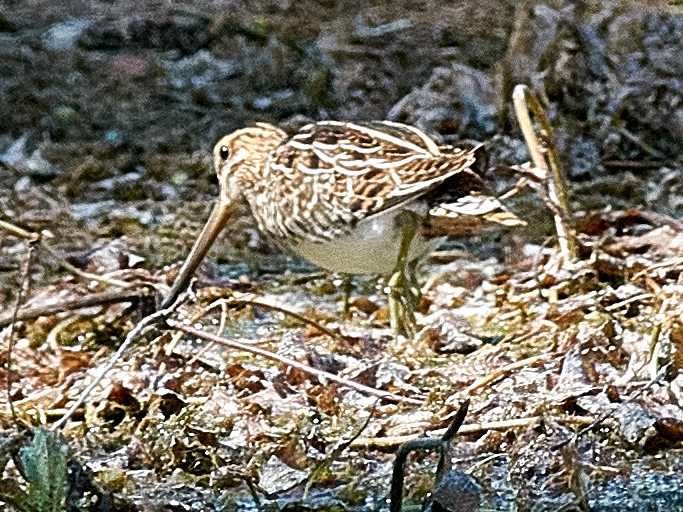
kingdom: Animalia
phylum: Chordata
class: Aves
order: Charadriiformes
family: Scolopacidae
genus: Gallinago
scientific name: Gallinago gallinago
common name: Common snipe
